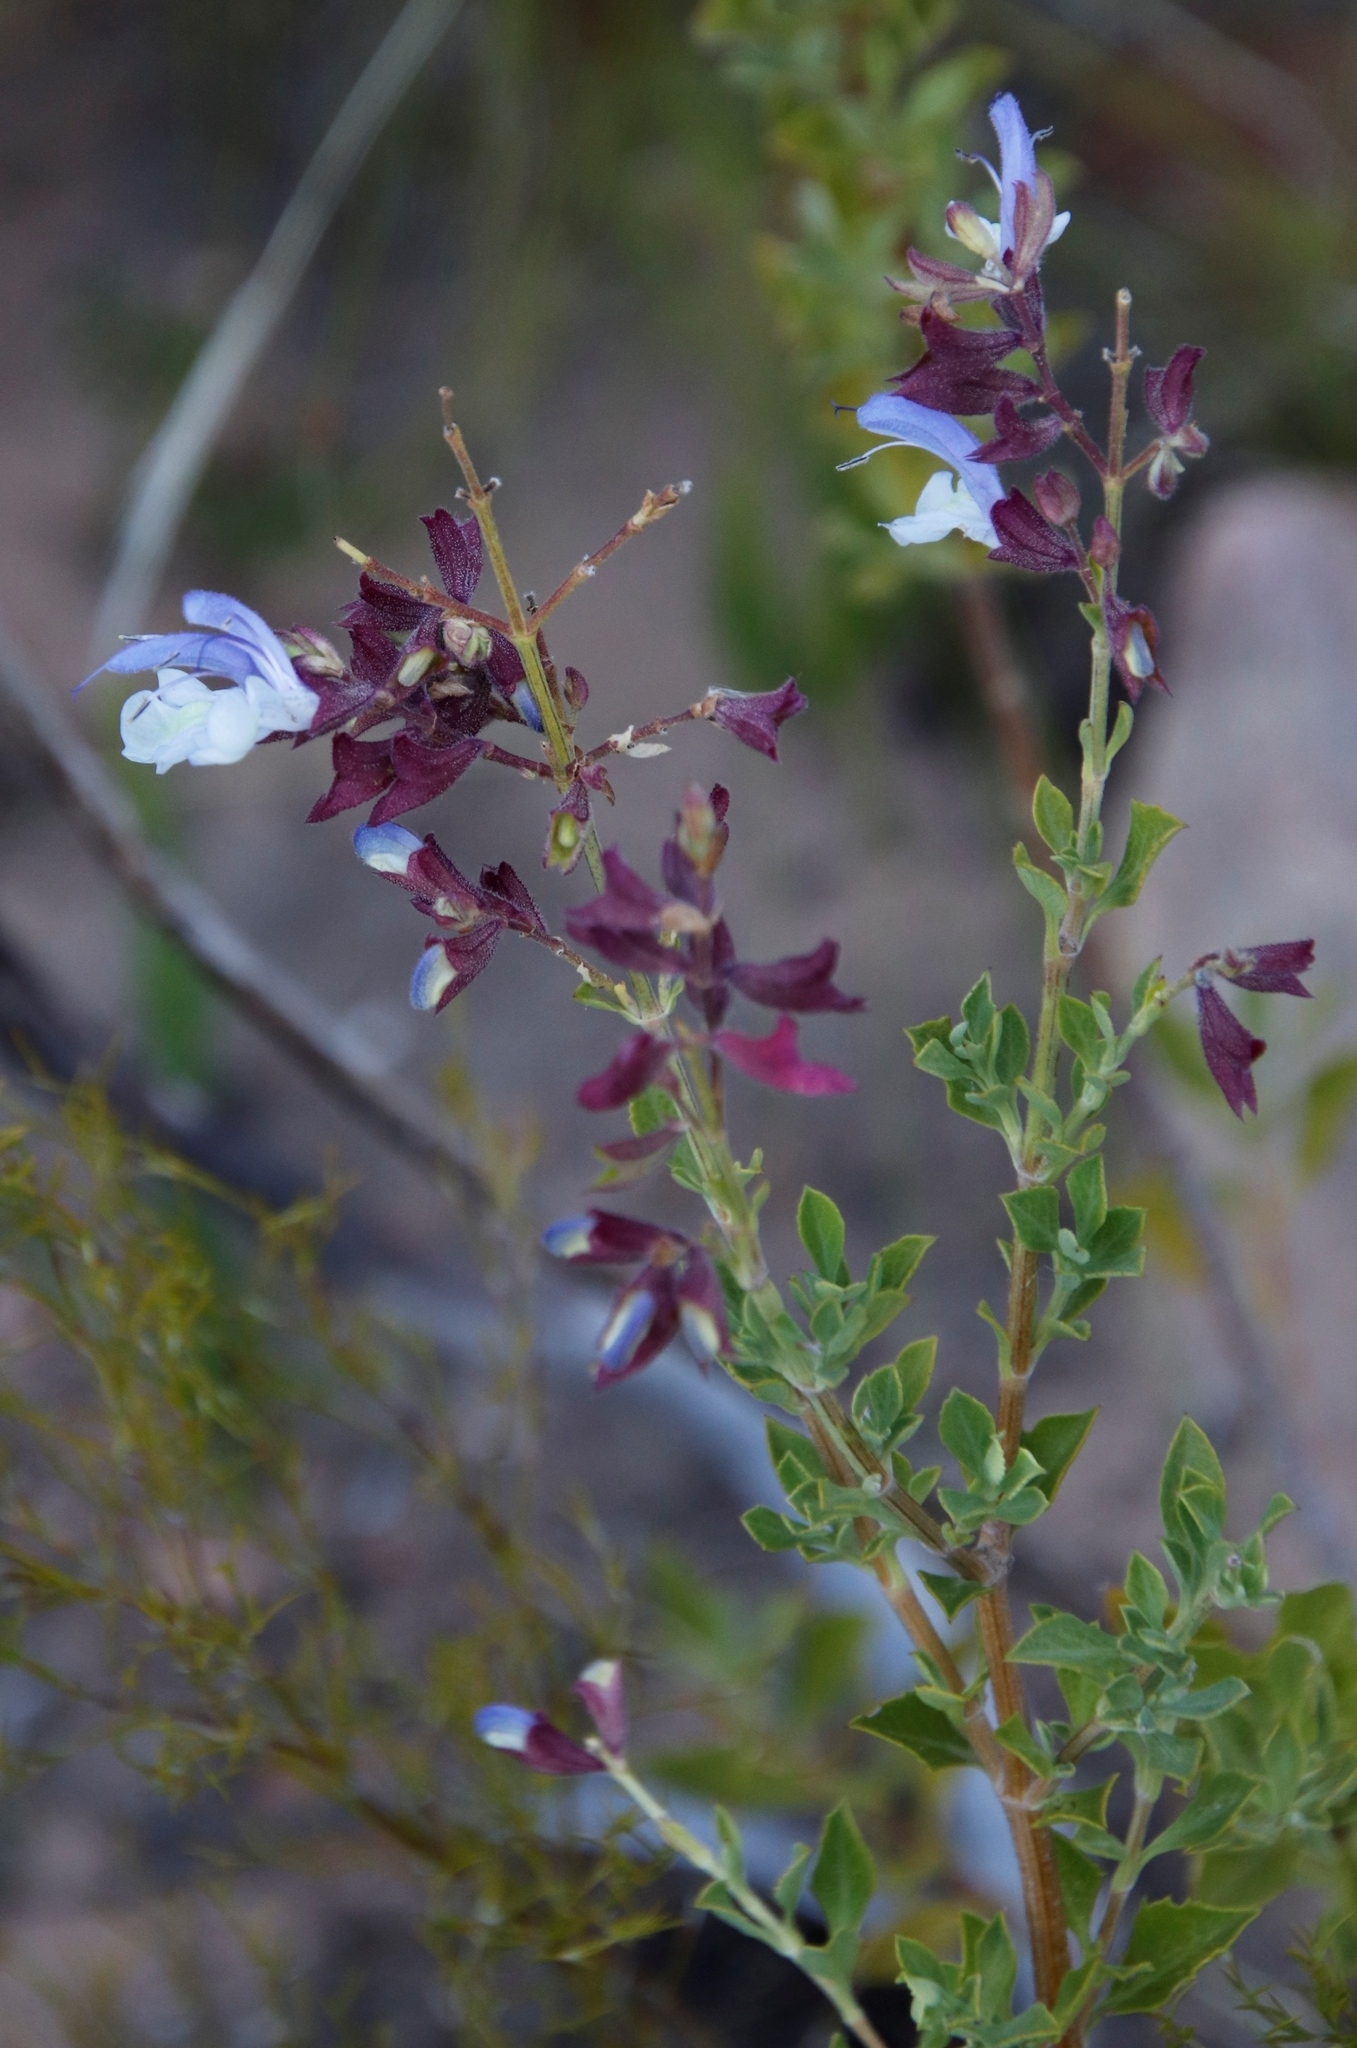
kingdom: Plantae
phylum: Tracheophyta
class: Magnoliopsida
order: Lamiales
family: Lamiaceae
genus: Salvia
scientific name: Salvia chamelaeagnea
